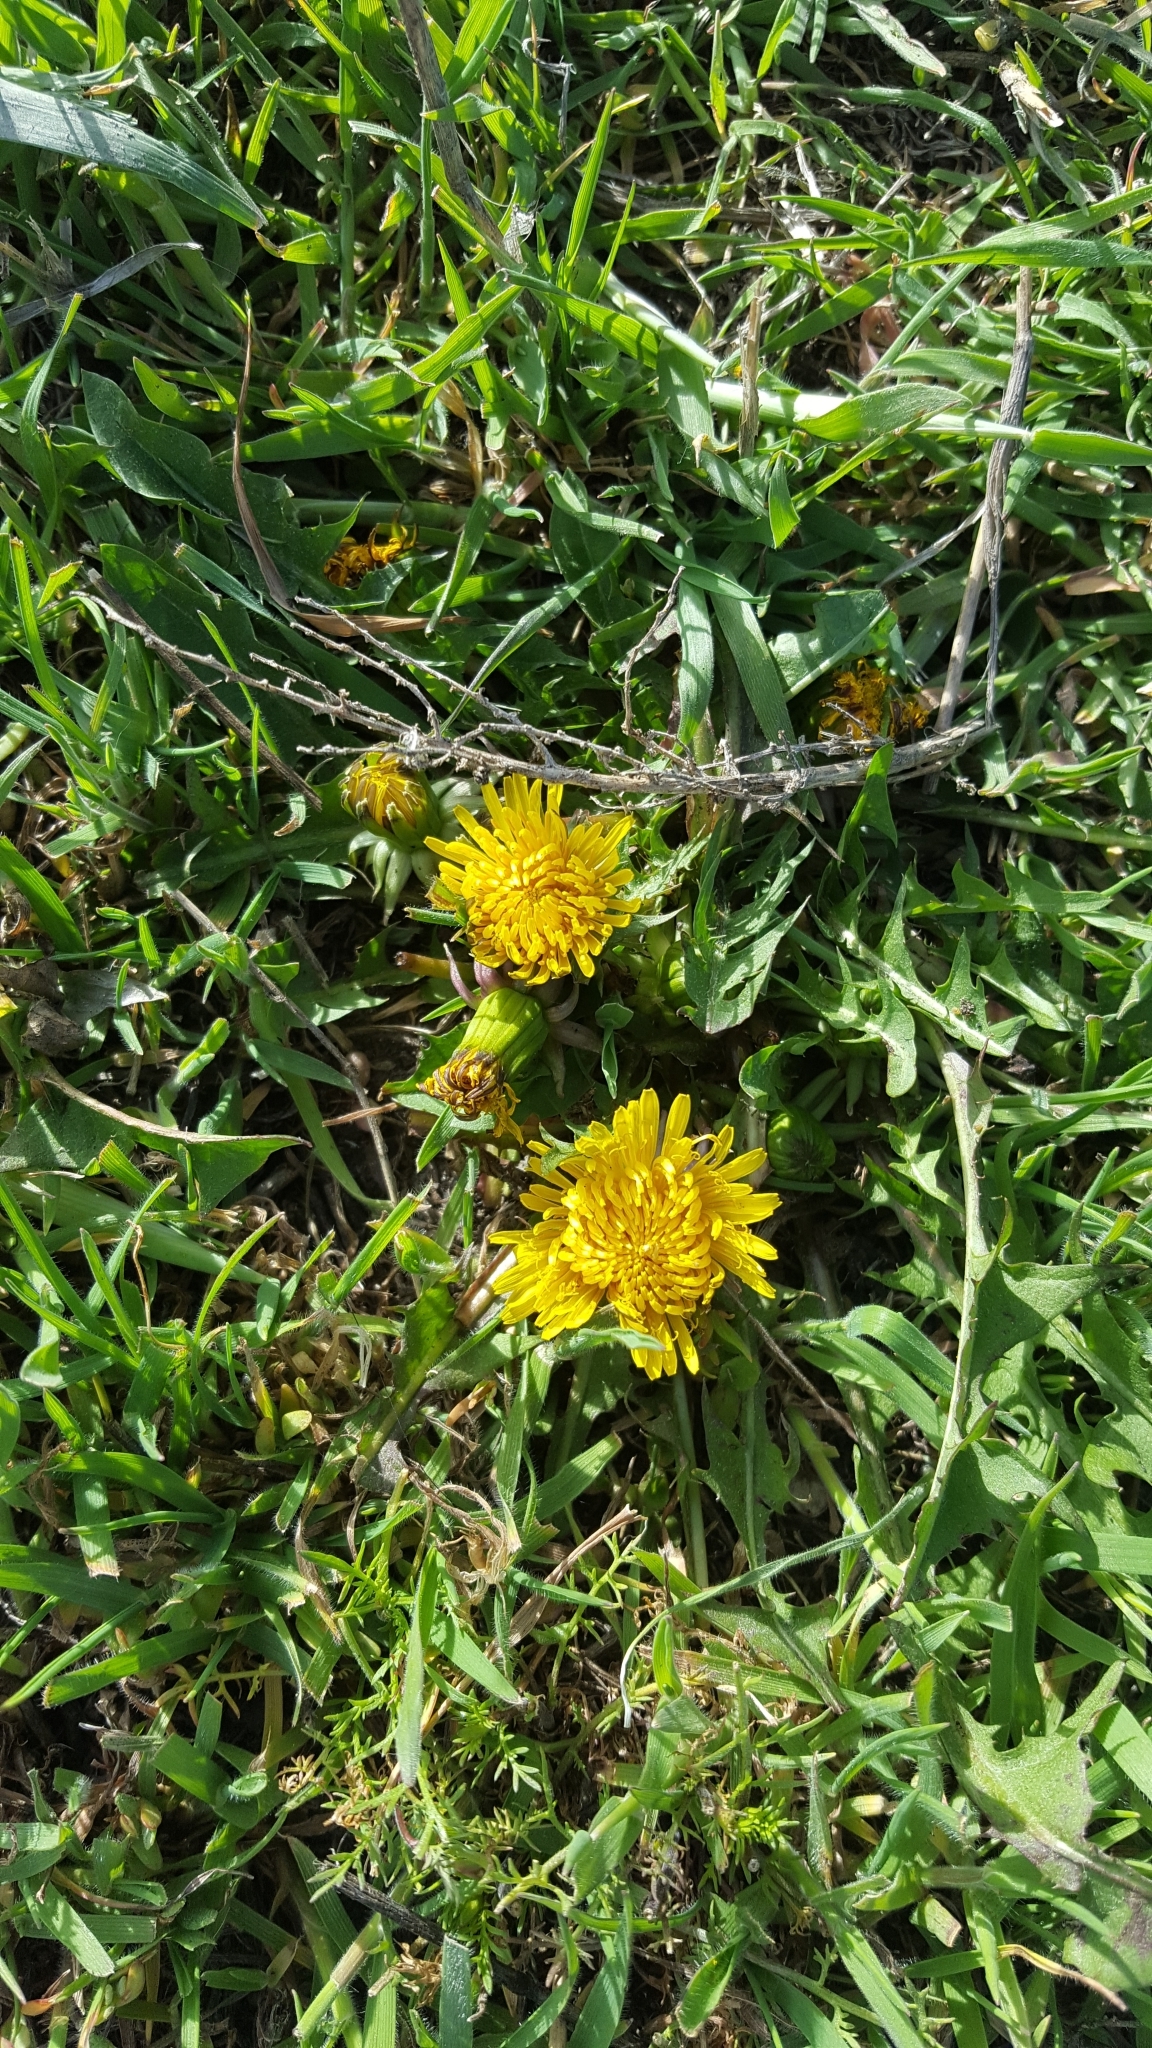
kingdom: Plantae
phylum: Tracheophyta
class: Magnoliopsida
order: Asterales
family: Asteraceae
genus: Taraxacum
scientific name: Taraxacum officinale
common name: Common dandelion
